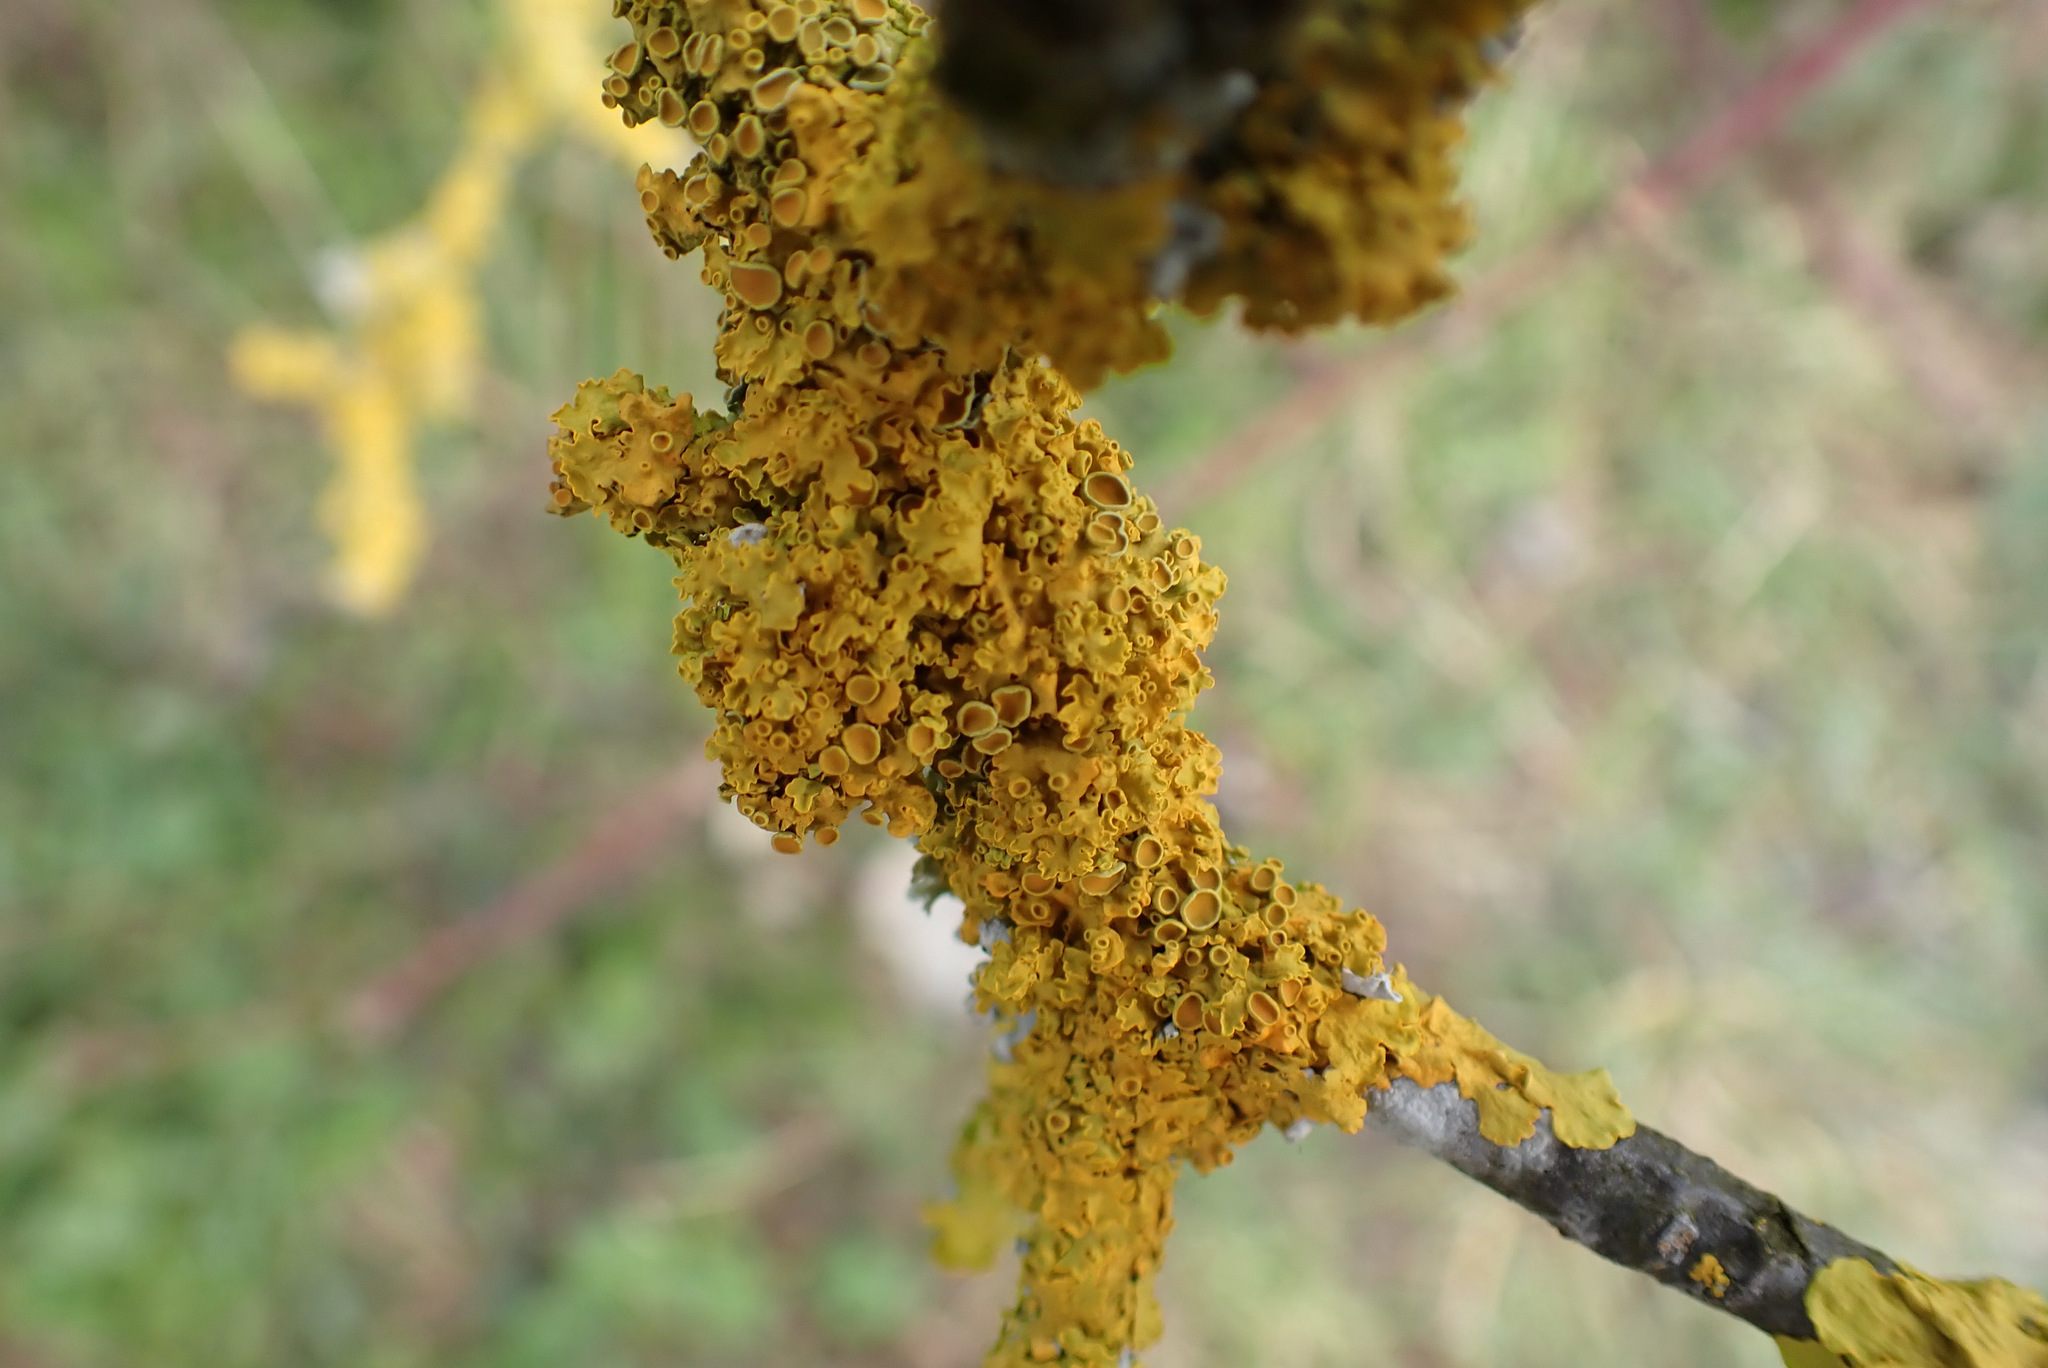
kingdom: Fungi
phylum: Ascomycota
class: Lecanoromycetes
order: Teloschistales
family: Teloschistaceae
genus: Xanthoria
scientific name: Xanthoria parietina
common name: Common orange lichen
